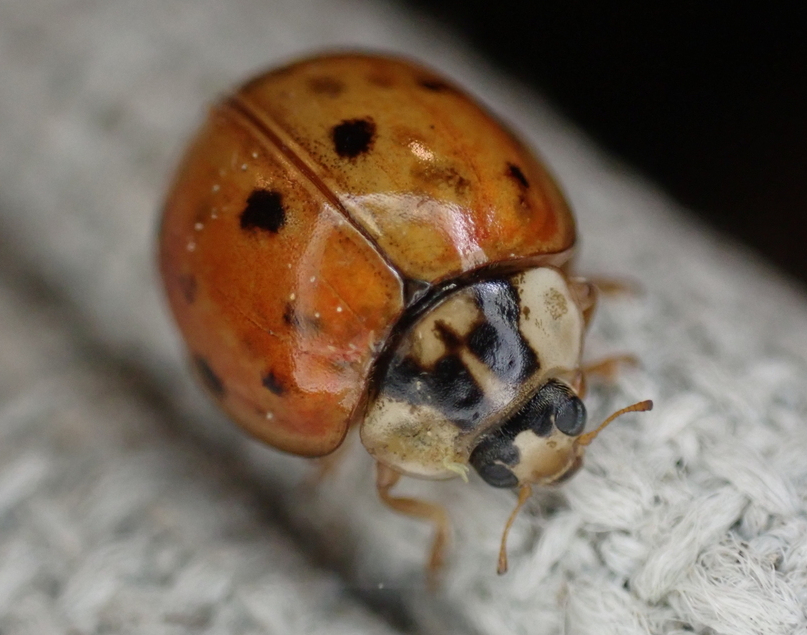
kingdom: Animalia
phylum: Arthropoda
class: Insecta
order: Coleoptera
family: Coccinellidae
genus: Harmonia
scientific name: Harmonia axyridis
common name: Harlequin ladybird
